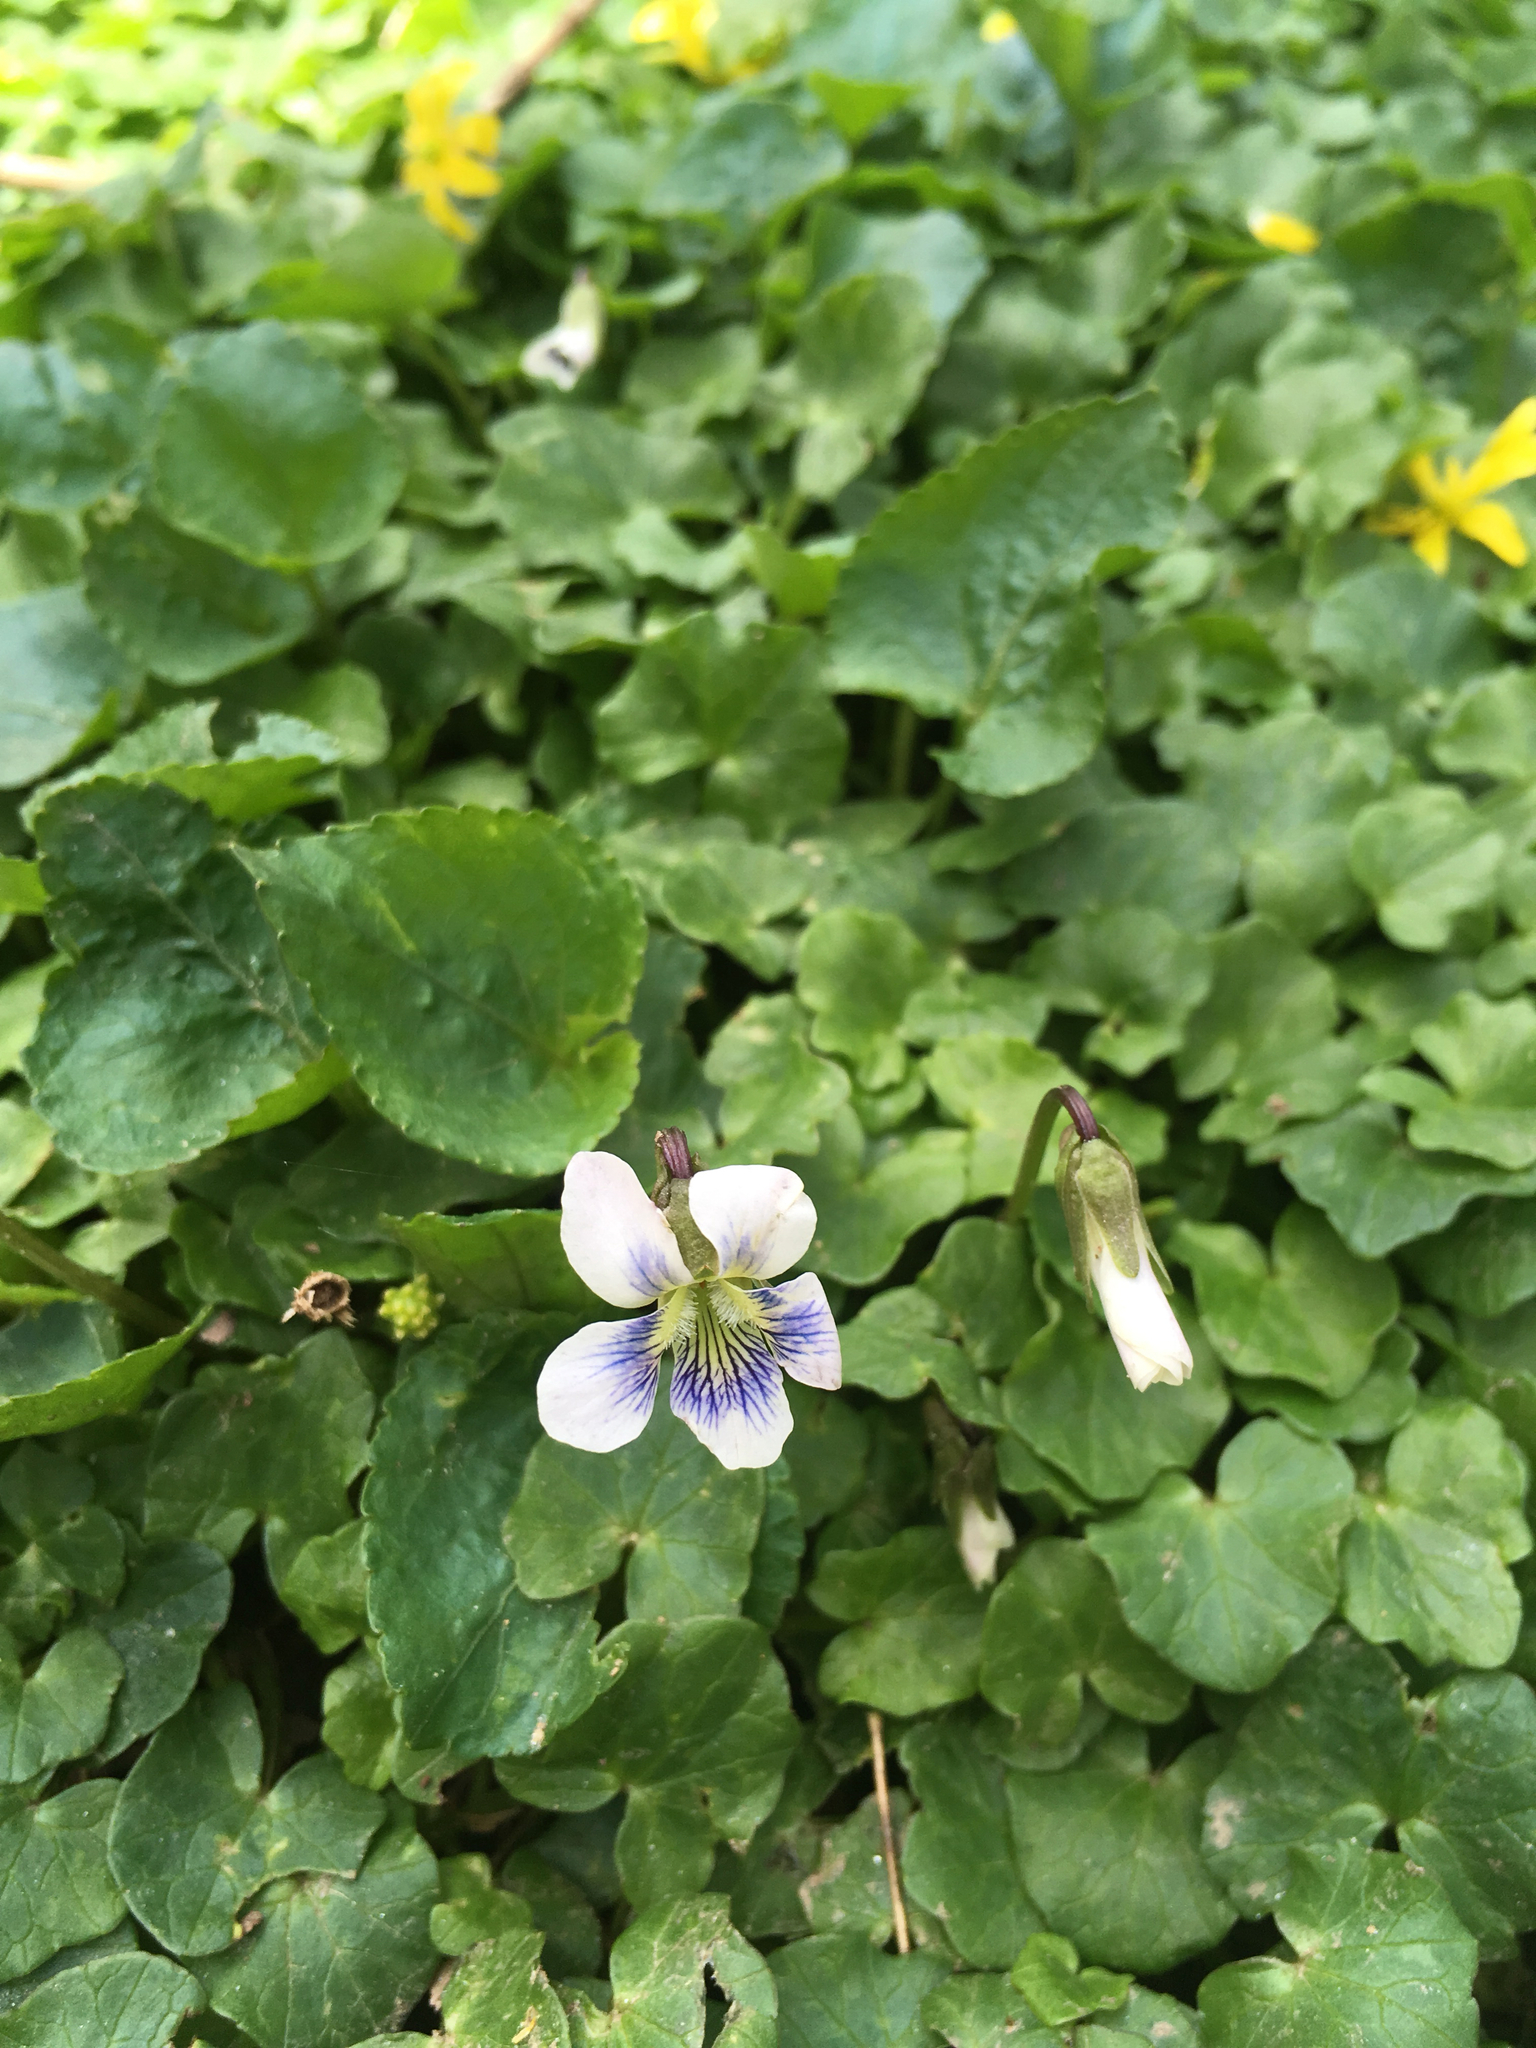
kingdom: Plantae
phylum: Tracheophyta
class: Magnoliopsida
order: Malpighiales
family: Violaceae
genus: Viola
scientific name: Viola sororia
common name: Dooryard violet
